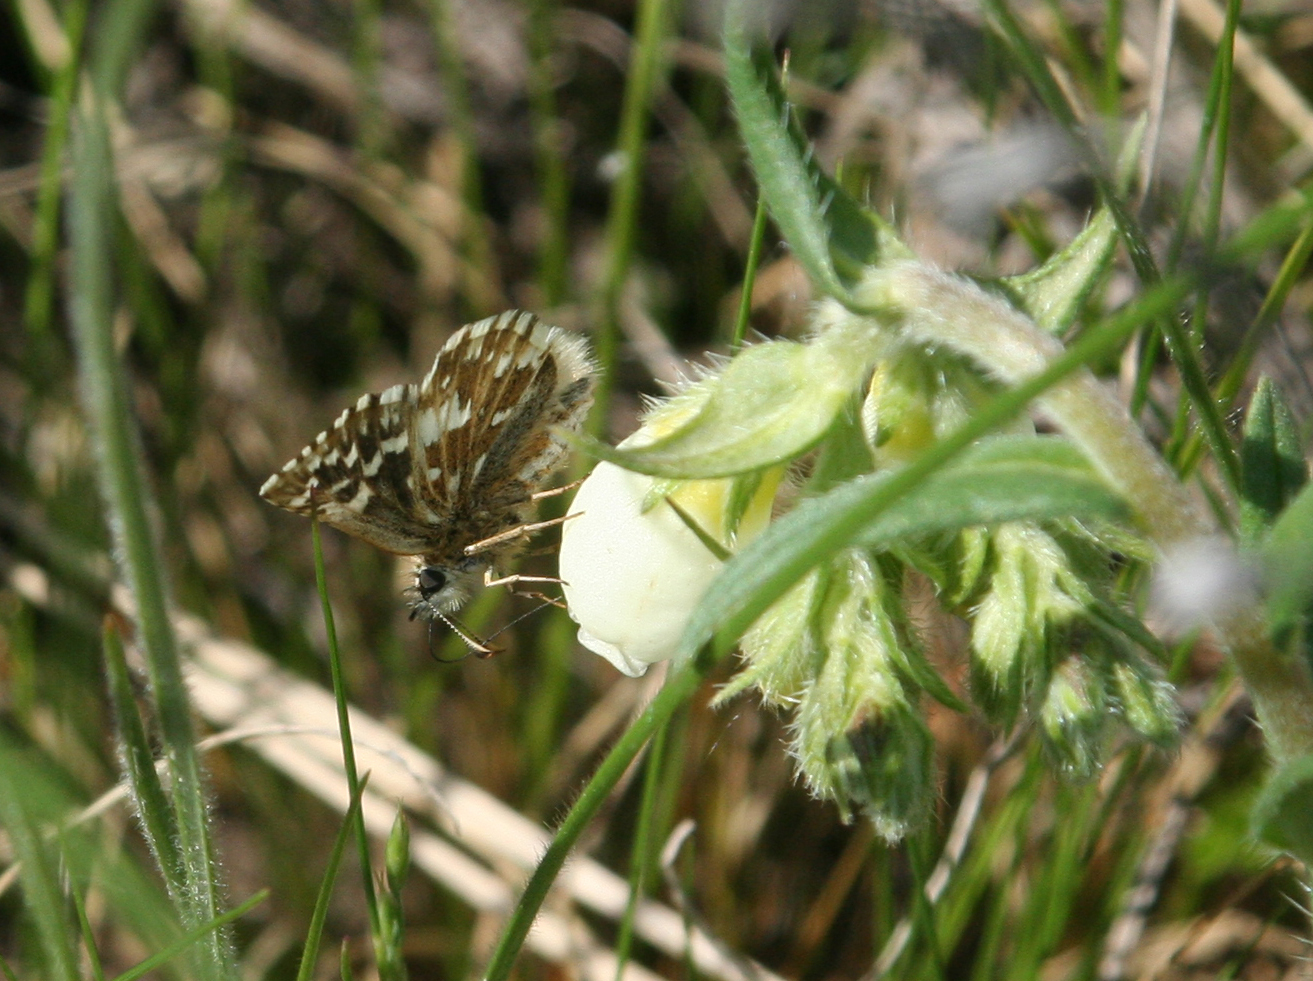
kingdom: Plantae
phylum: Tracheophyta
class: Magnoliopsida
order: Boraginales
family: Boraginaceae
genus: Onosma
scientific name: Onosma simplicissima
